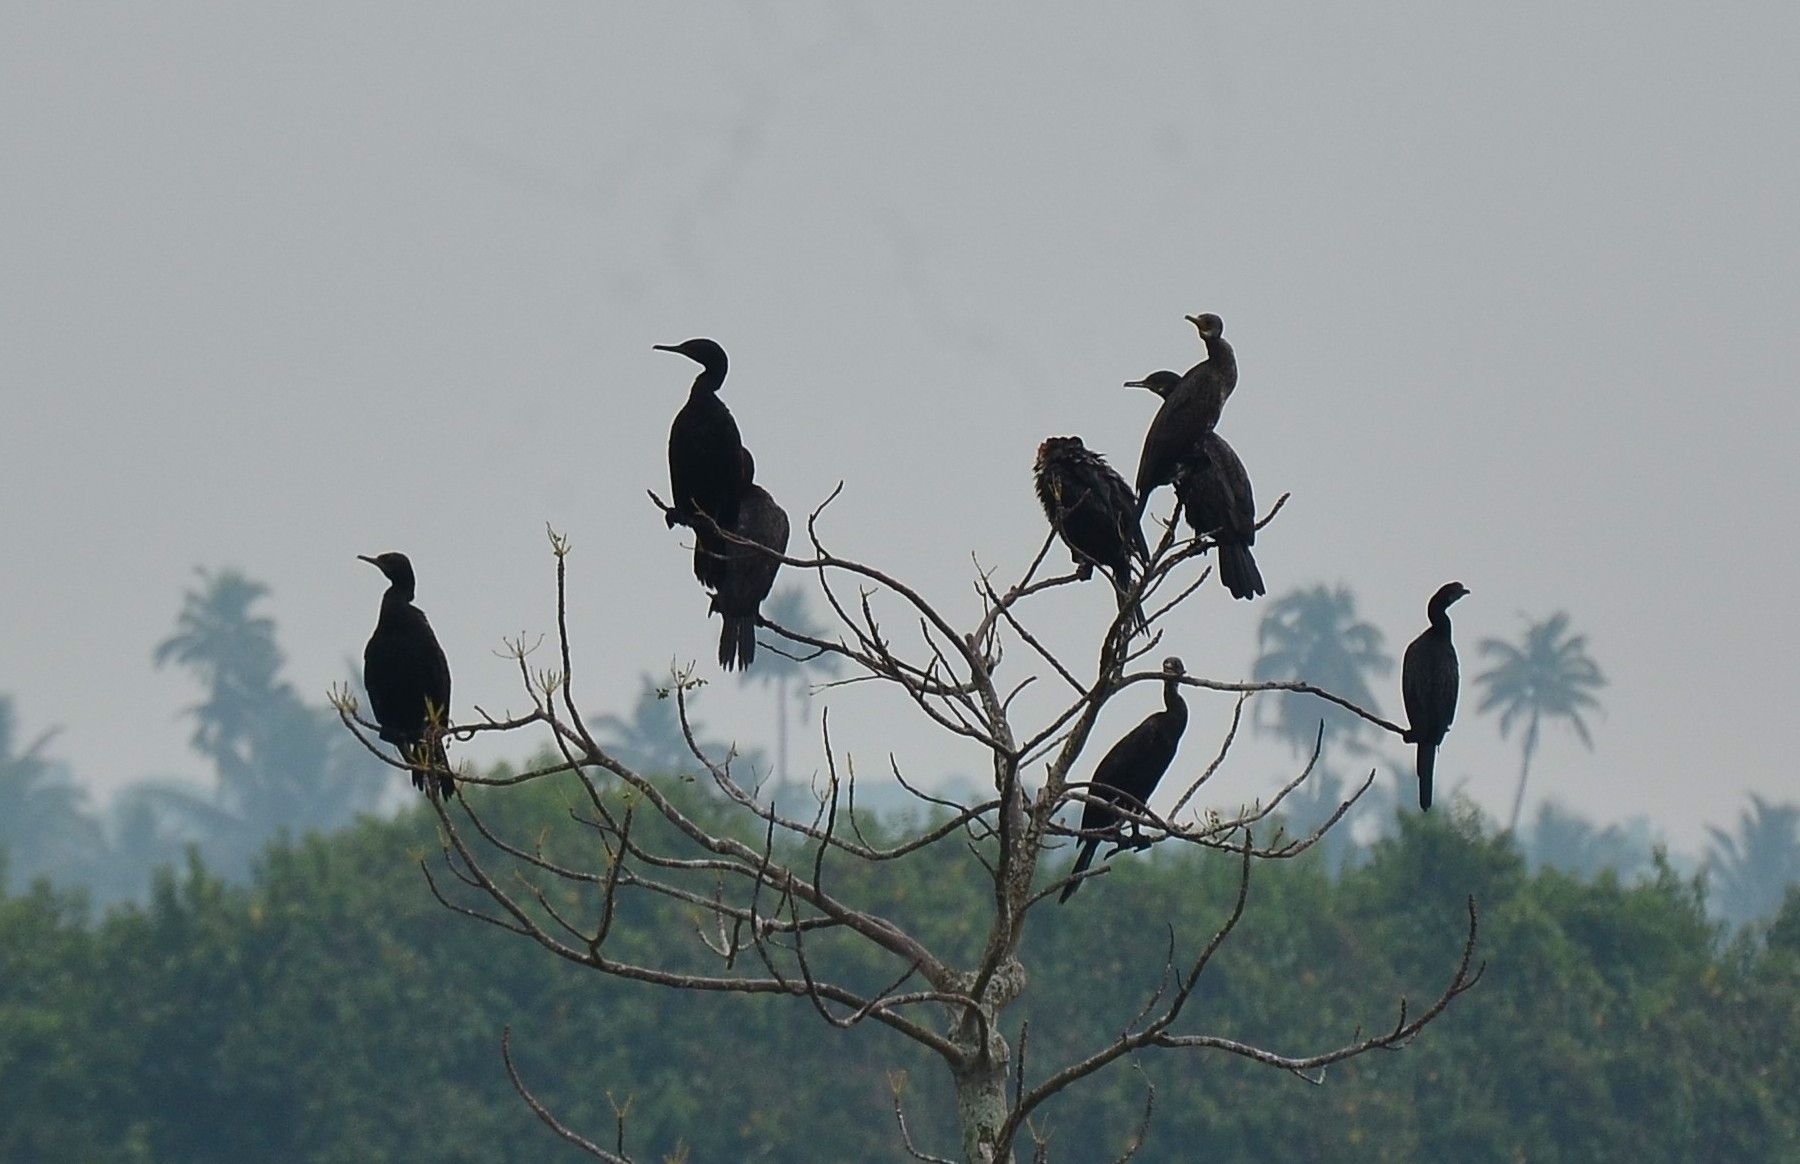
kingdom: Animalia
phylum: Chordata
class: Aves
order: Suliformes
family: Phalacrocoracidae
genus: Microcarbo
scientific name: Microcarbo niger
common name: Little cormorant
